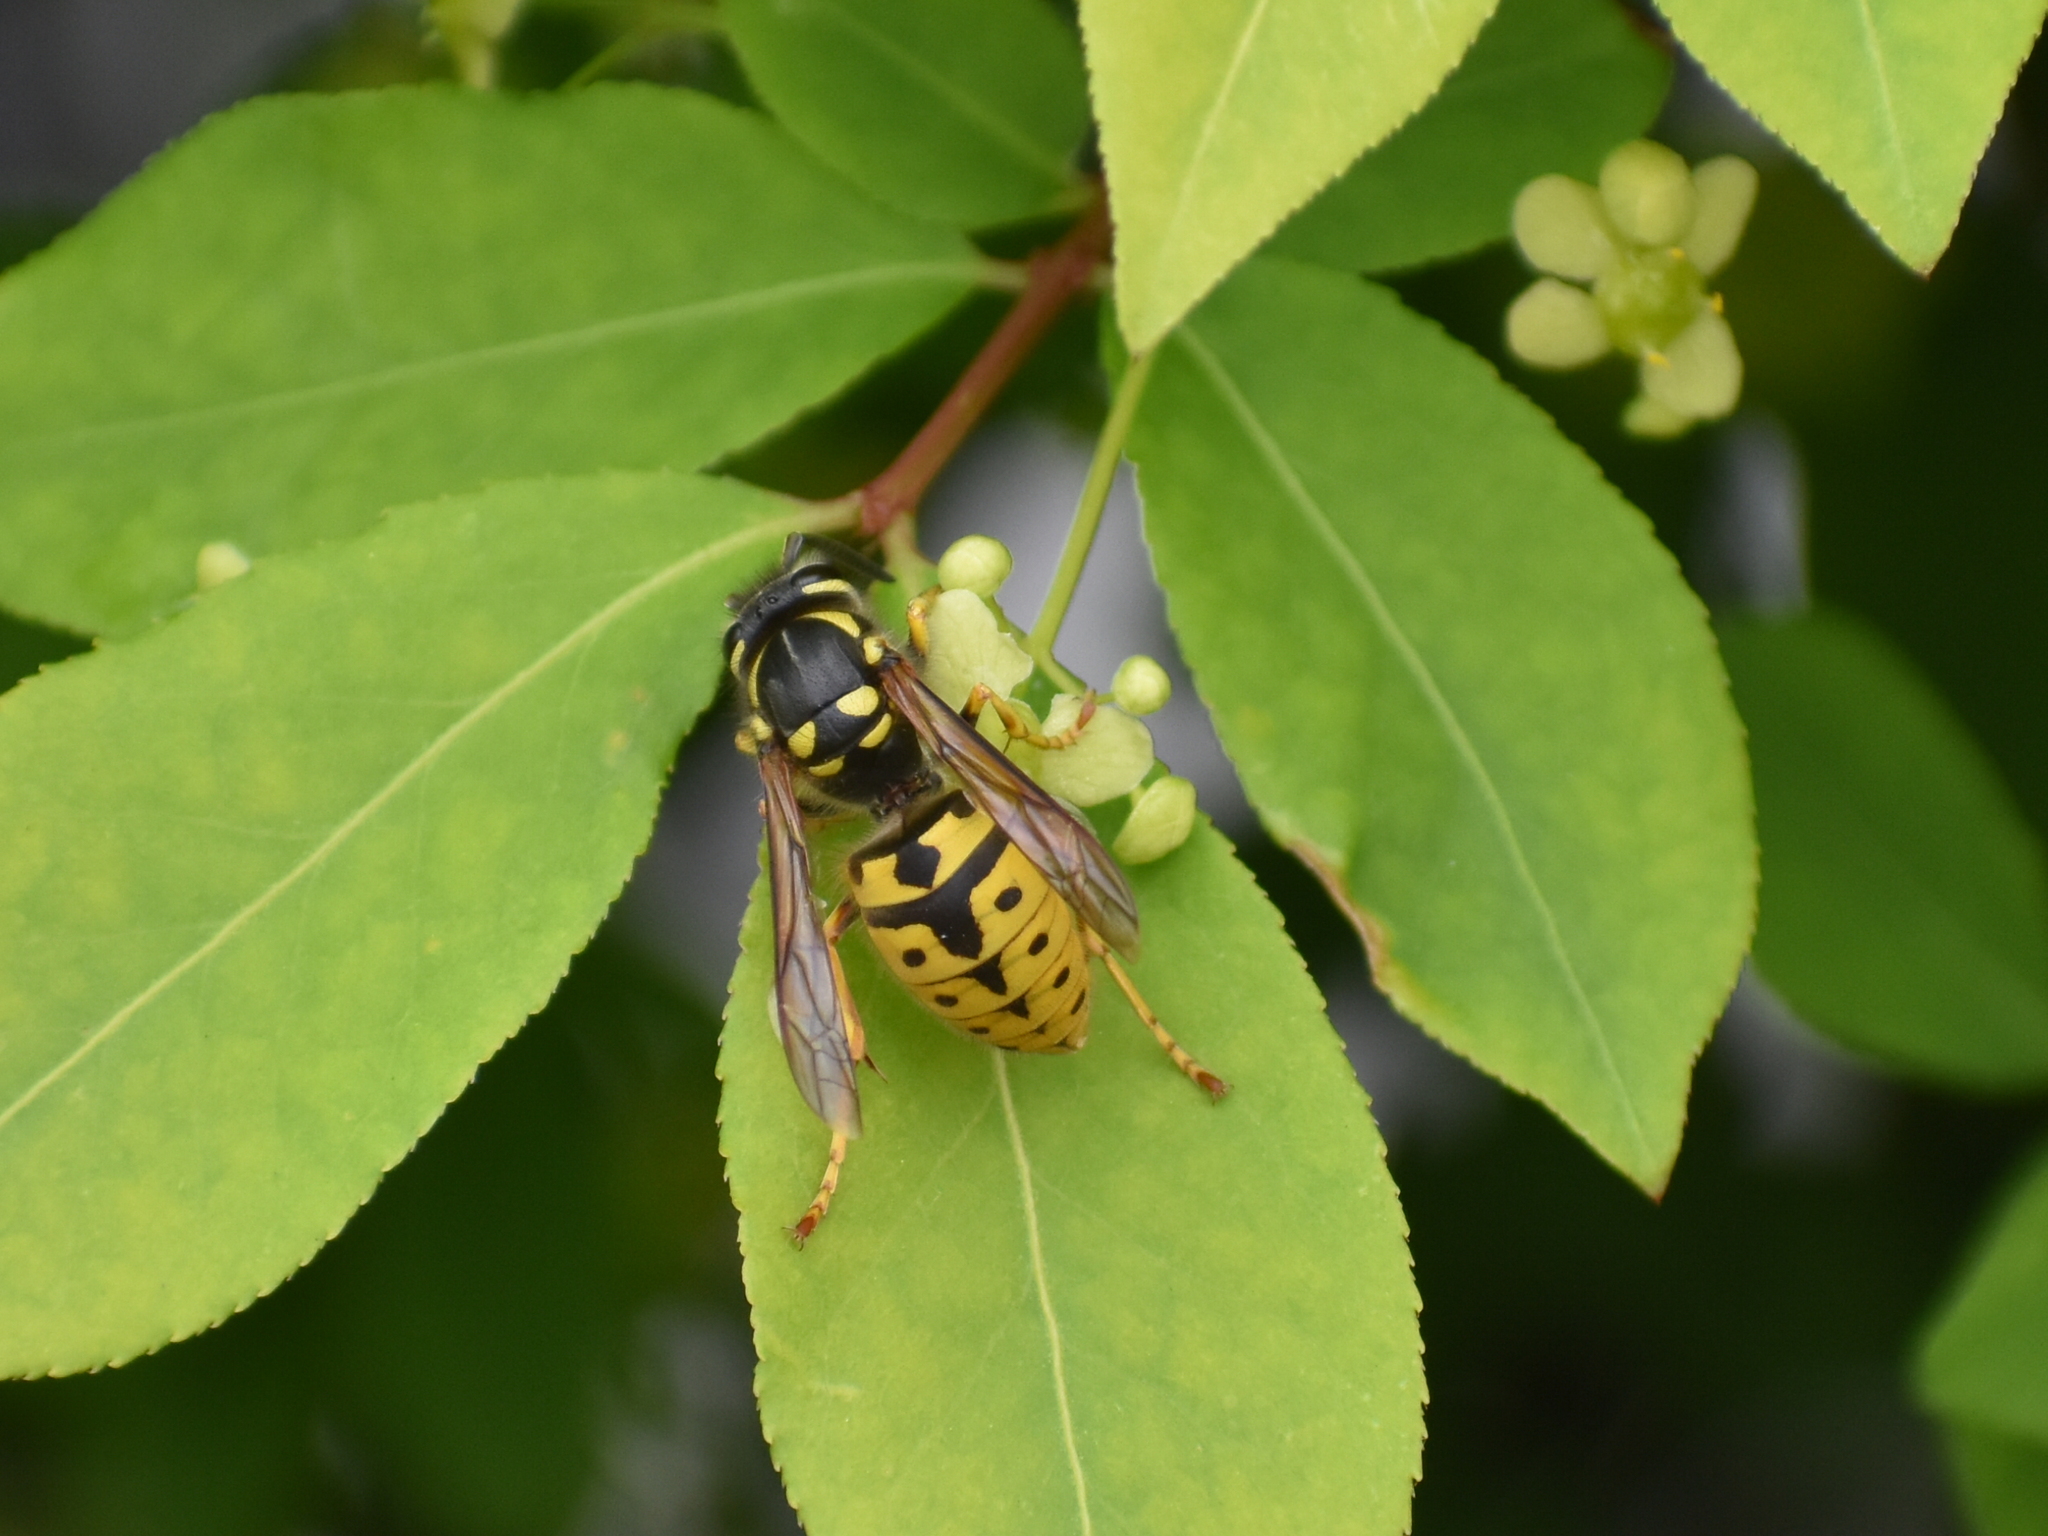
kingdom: Animalia
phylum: Arthropoda
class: Insecta
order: Hymenoptera
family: Vespidae
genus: Vespula
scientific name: Vespula germanica
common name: German wasp
